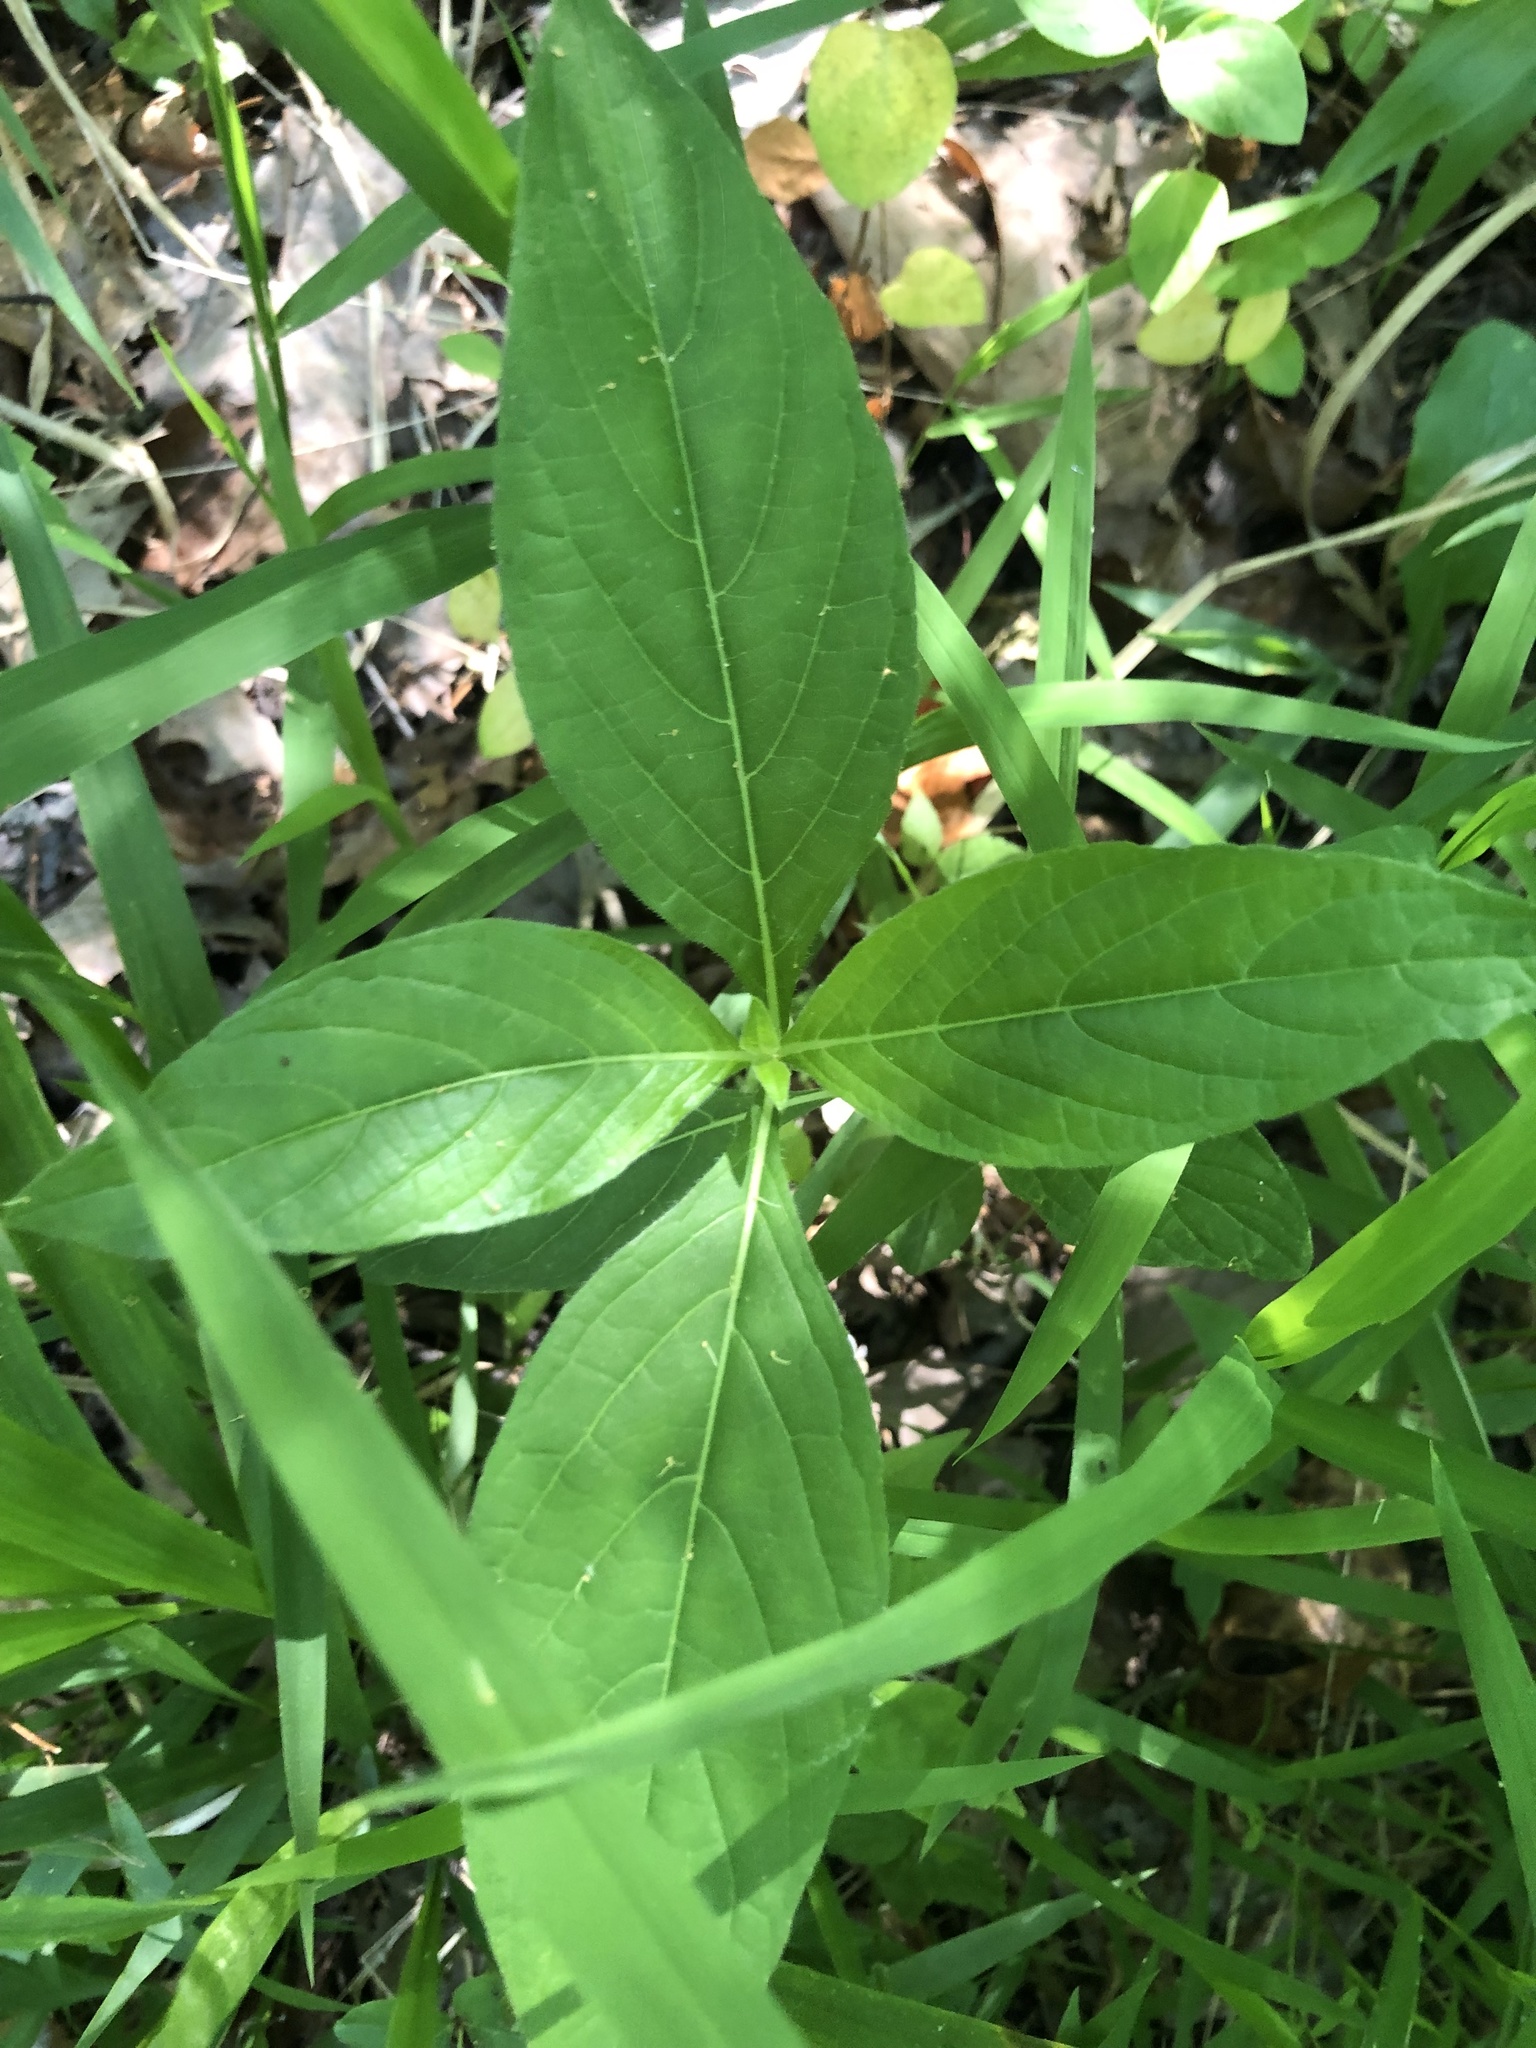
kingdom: Plantae
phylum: Tracheophyta
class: Magnoliopsida
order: Lamiales
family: Acanthaceae
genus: Ruellia
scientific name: Ruellia strepens
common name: Limestone wild petunia
